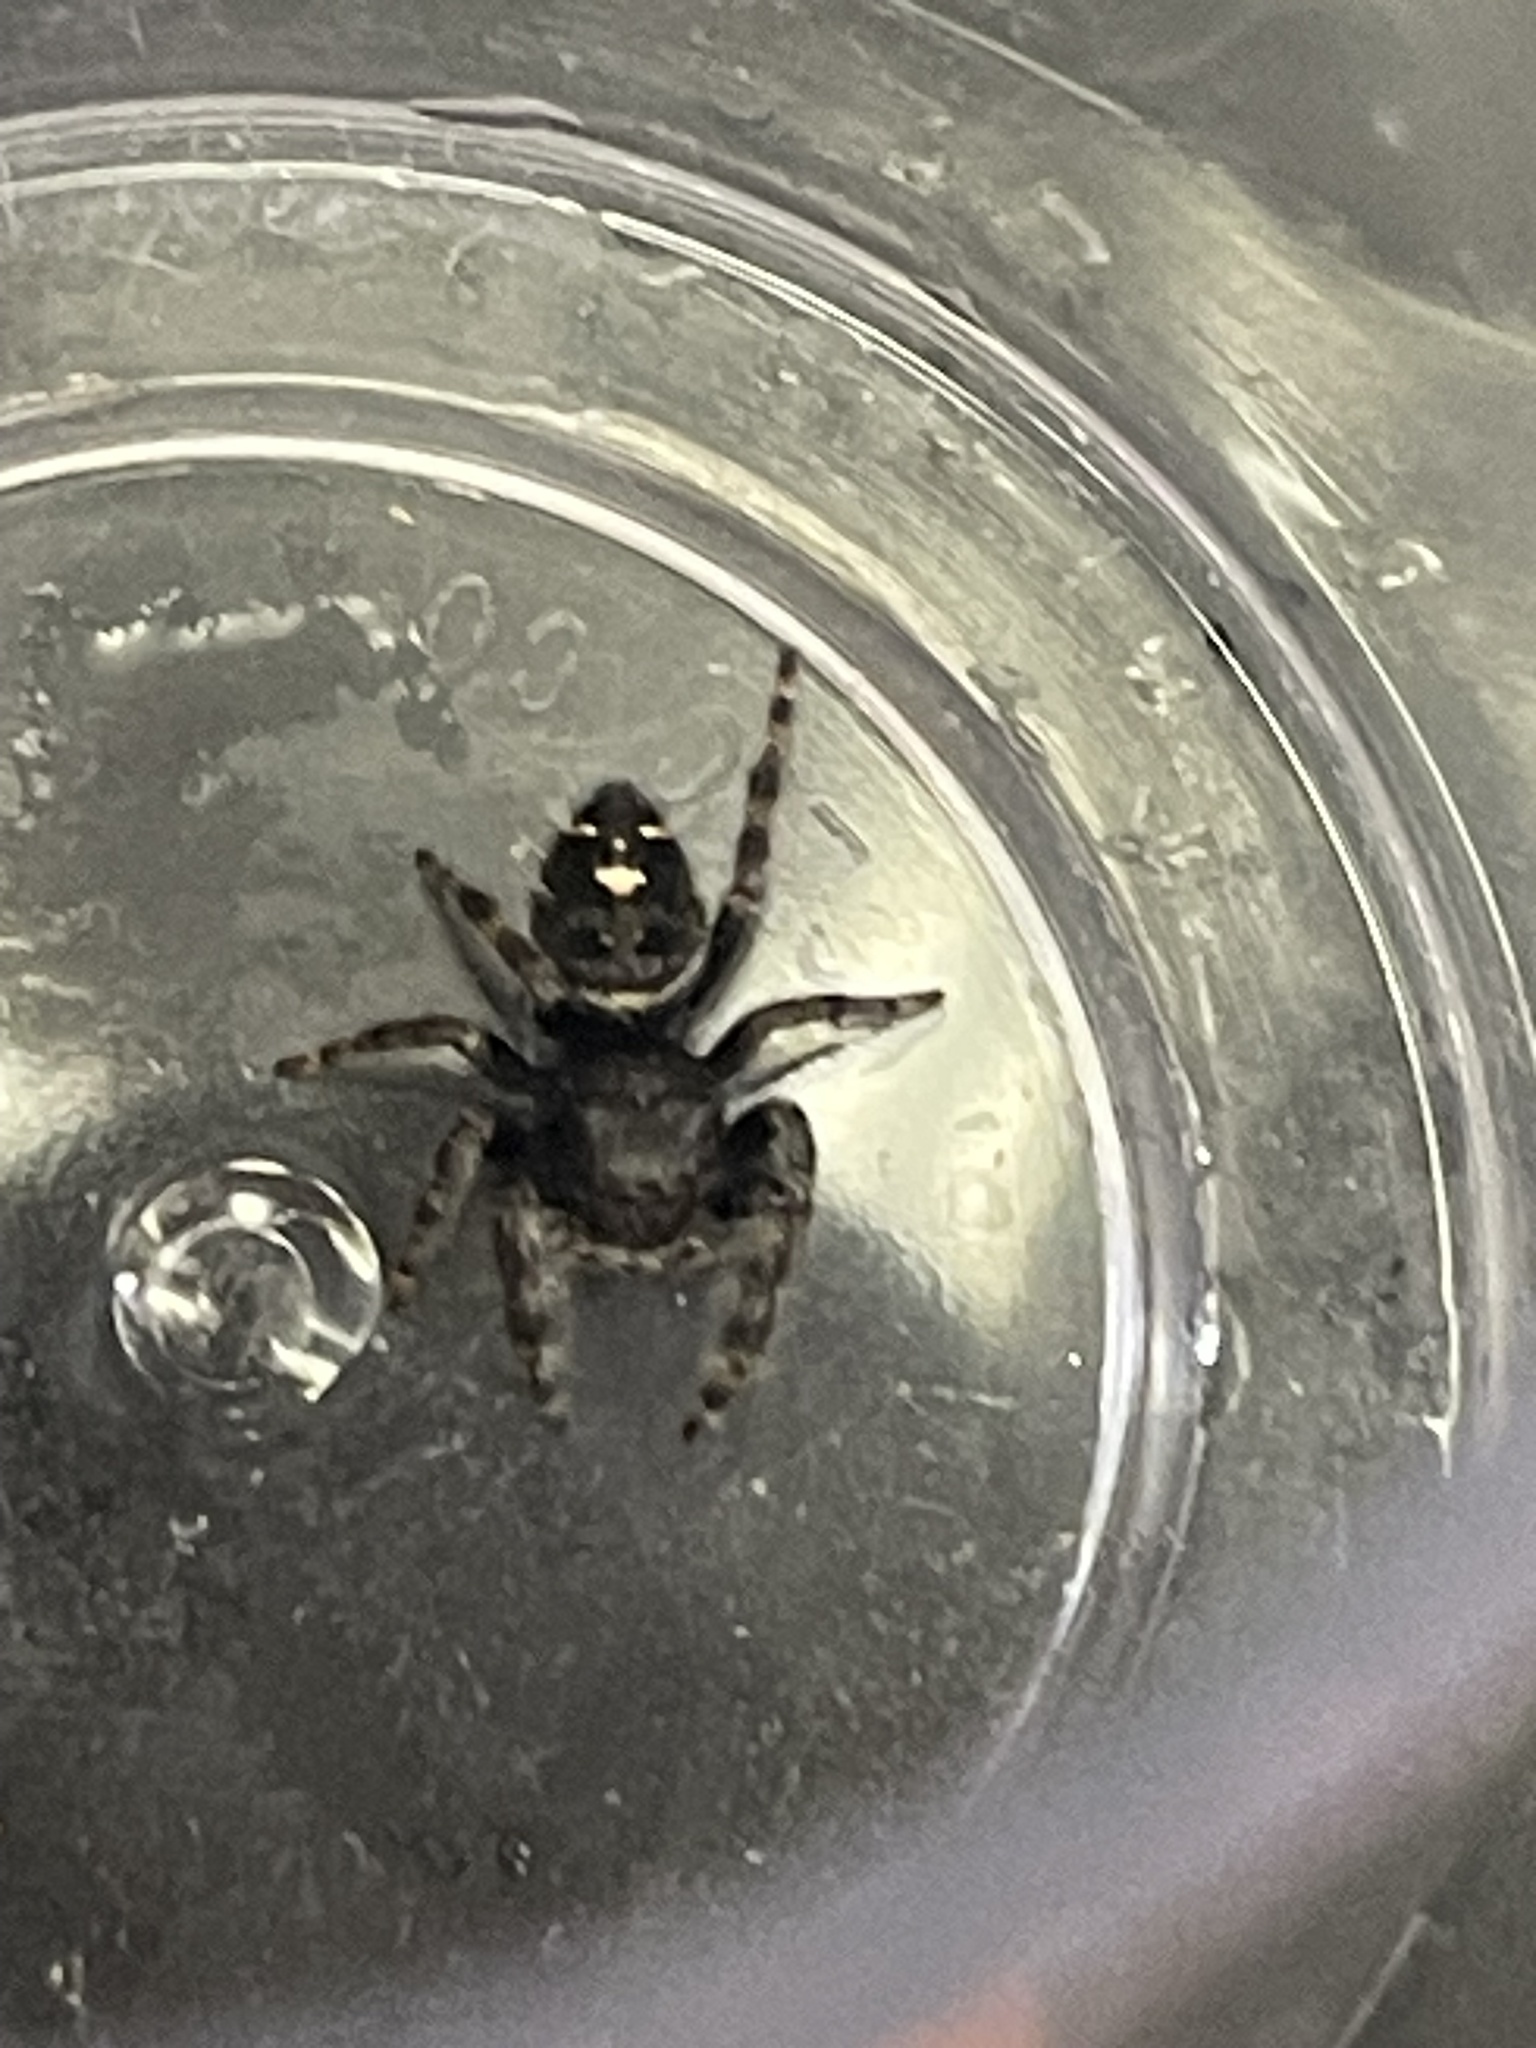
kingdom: Animalia
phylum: Arthropoda
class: Arachnida
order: Araneae
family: Salticidae
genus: Phidippus
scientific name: Phidippus audax
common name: Bold jumper
